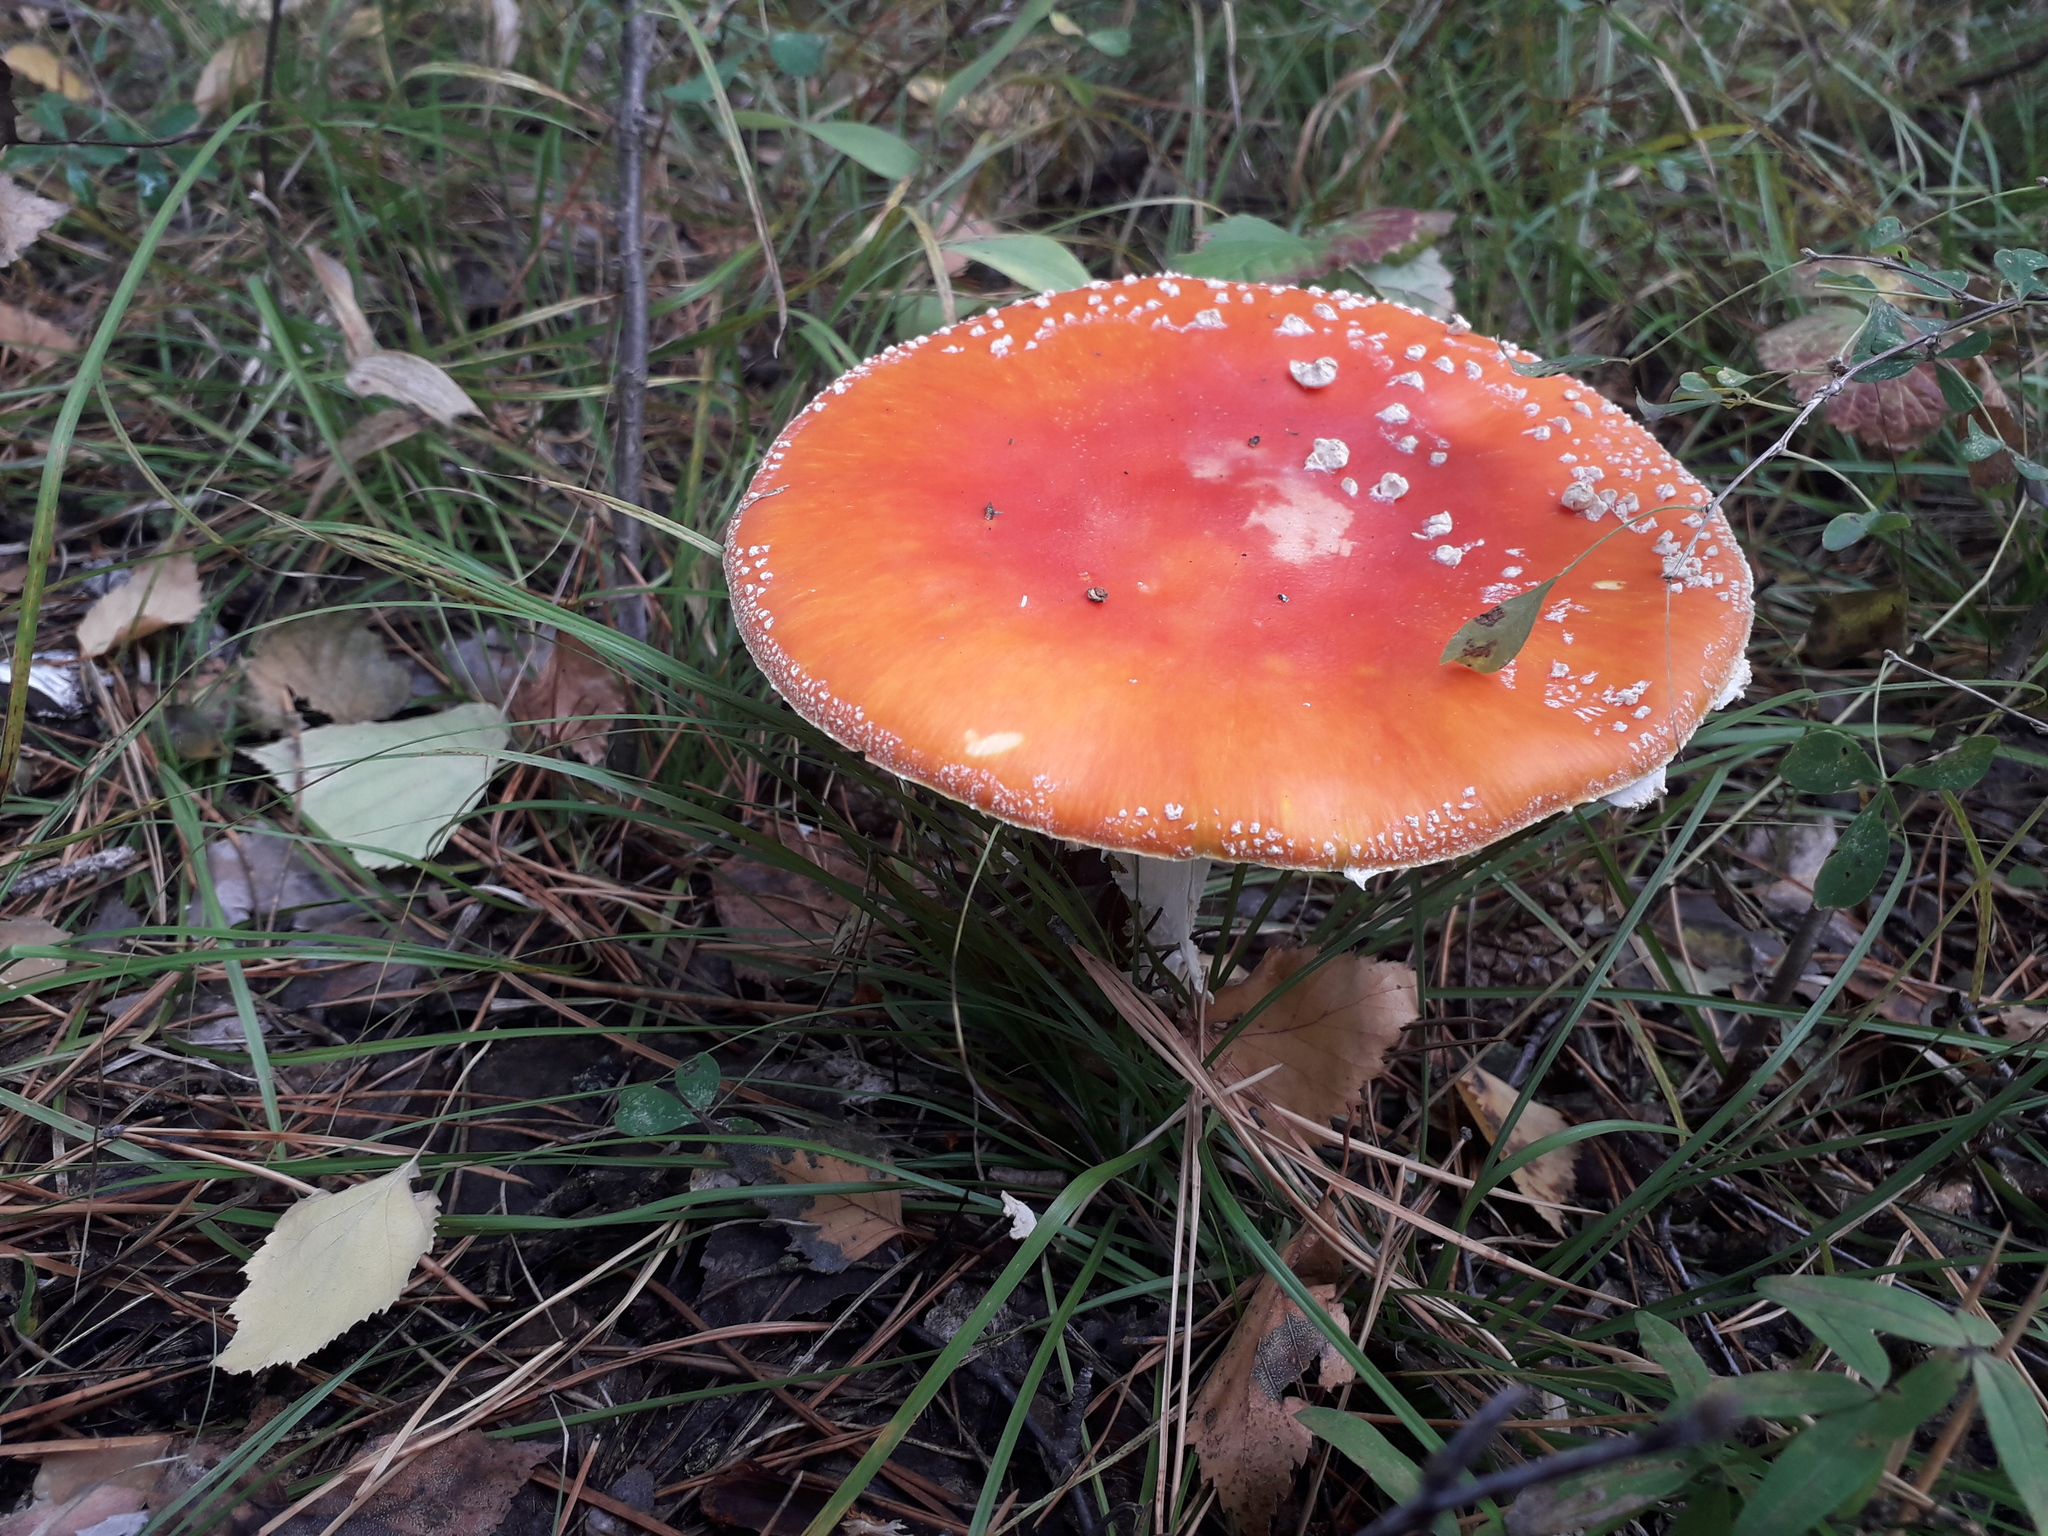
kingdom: Fungi
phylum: Basidiomycota
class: Agaricomycetes
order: Agaricales
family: Amanitaceae
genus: Amanita
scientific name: Amanita muscaria
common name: Fly agaric
